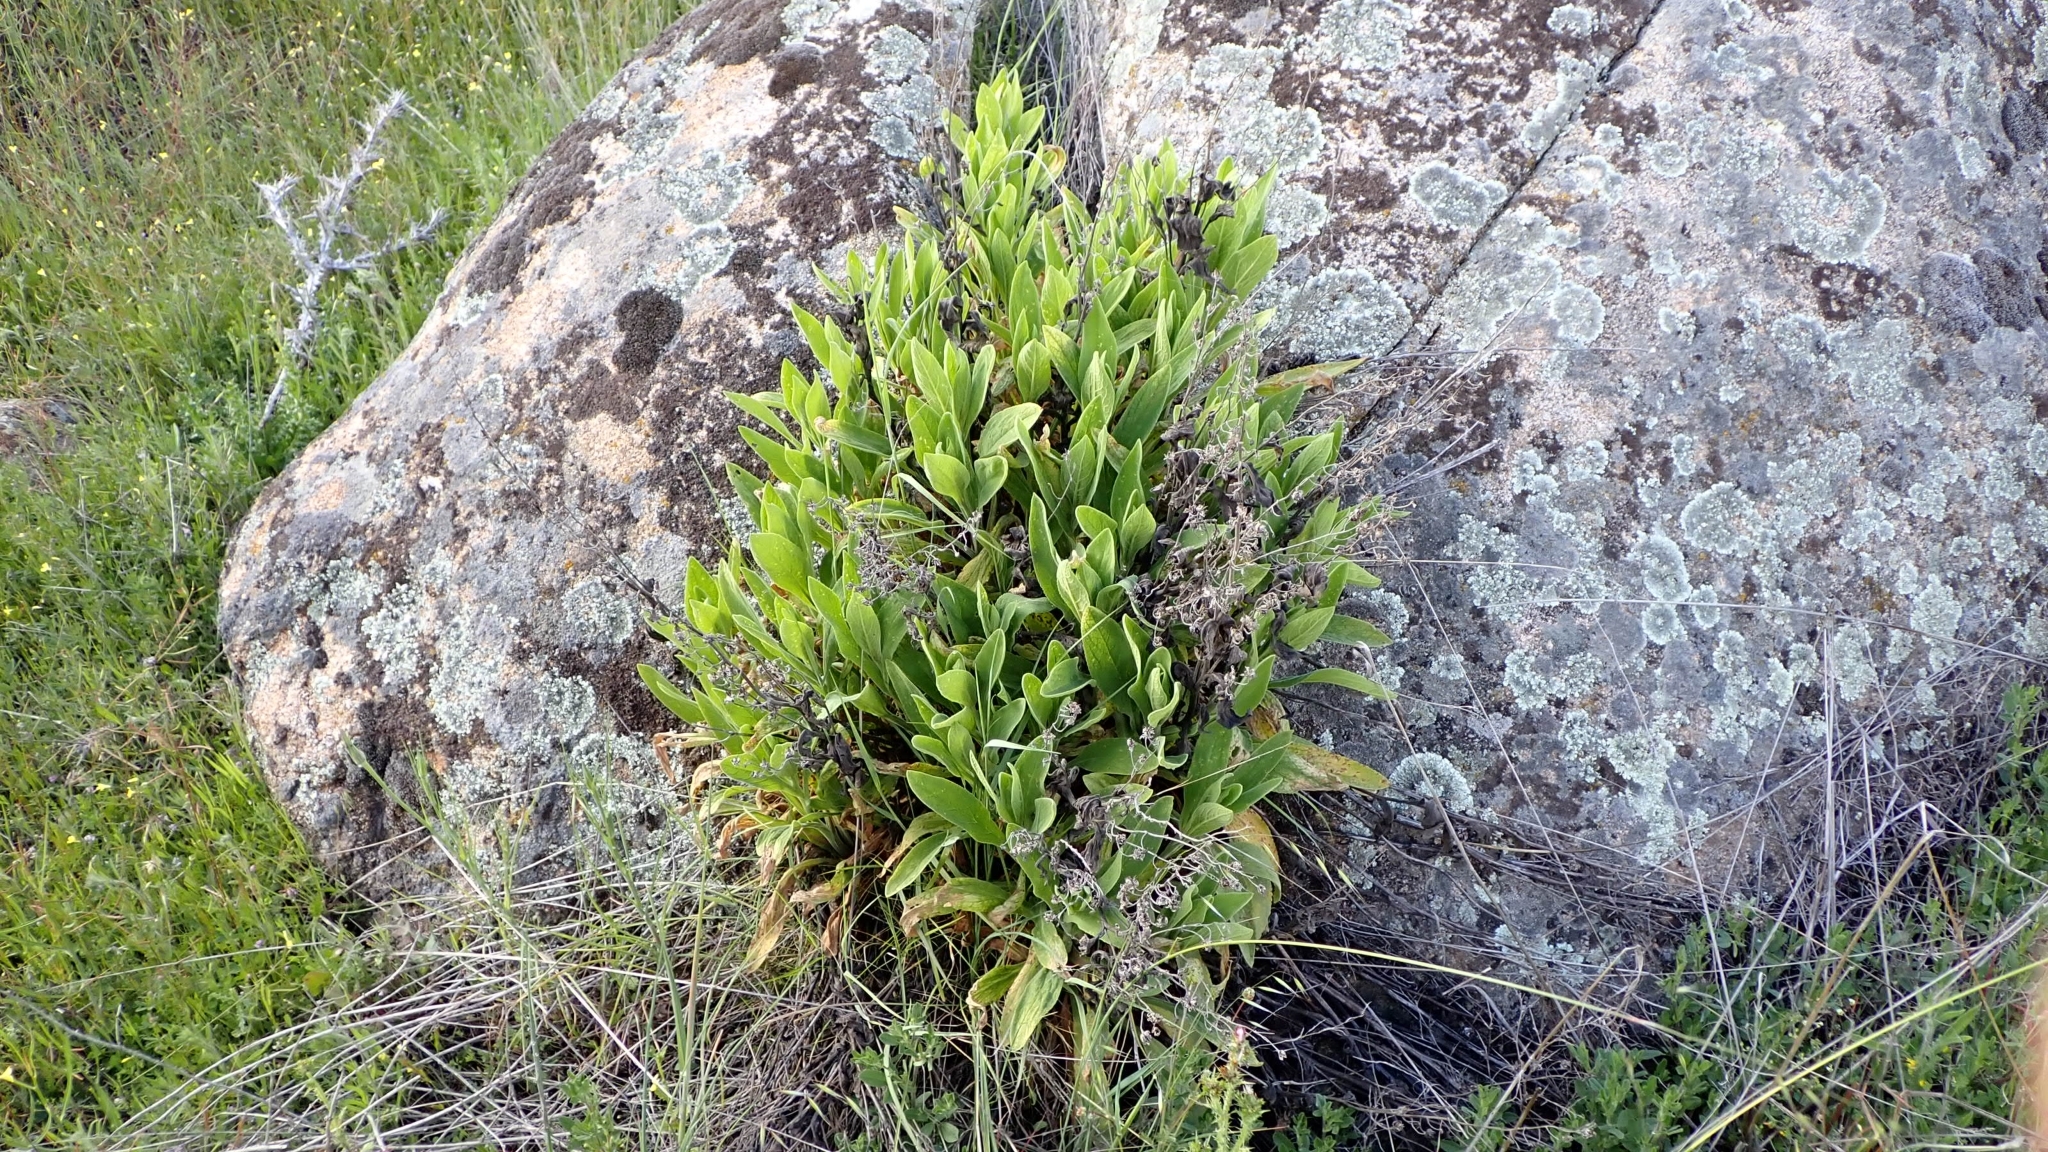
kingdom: Plantae
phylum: Tracheophyta
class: Magnoliopsida
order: Lamiales
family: Plantaginaceae
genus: Digitalis
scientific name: Digitalis thapsi
